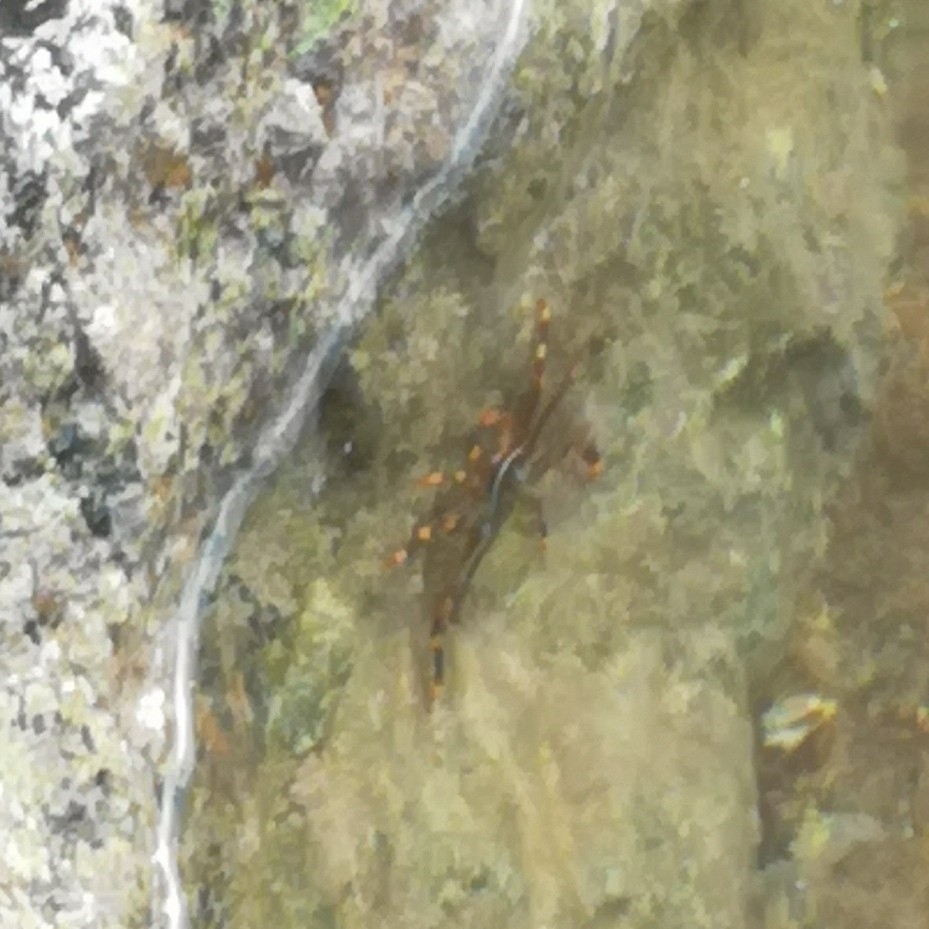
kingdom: Animalia
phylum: Arthropoda
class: Malacostraca
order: Decapoda
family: Percnidae
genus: Percnon
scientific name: Percnon gibbesi
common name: Nimble spray crab
